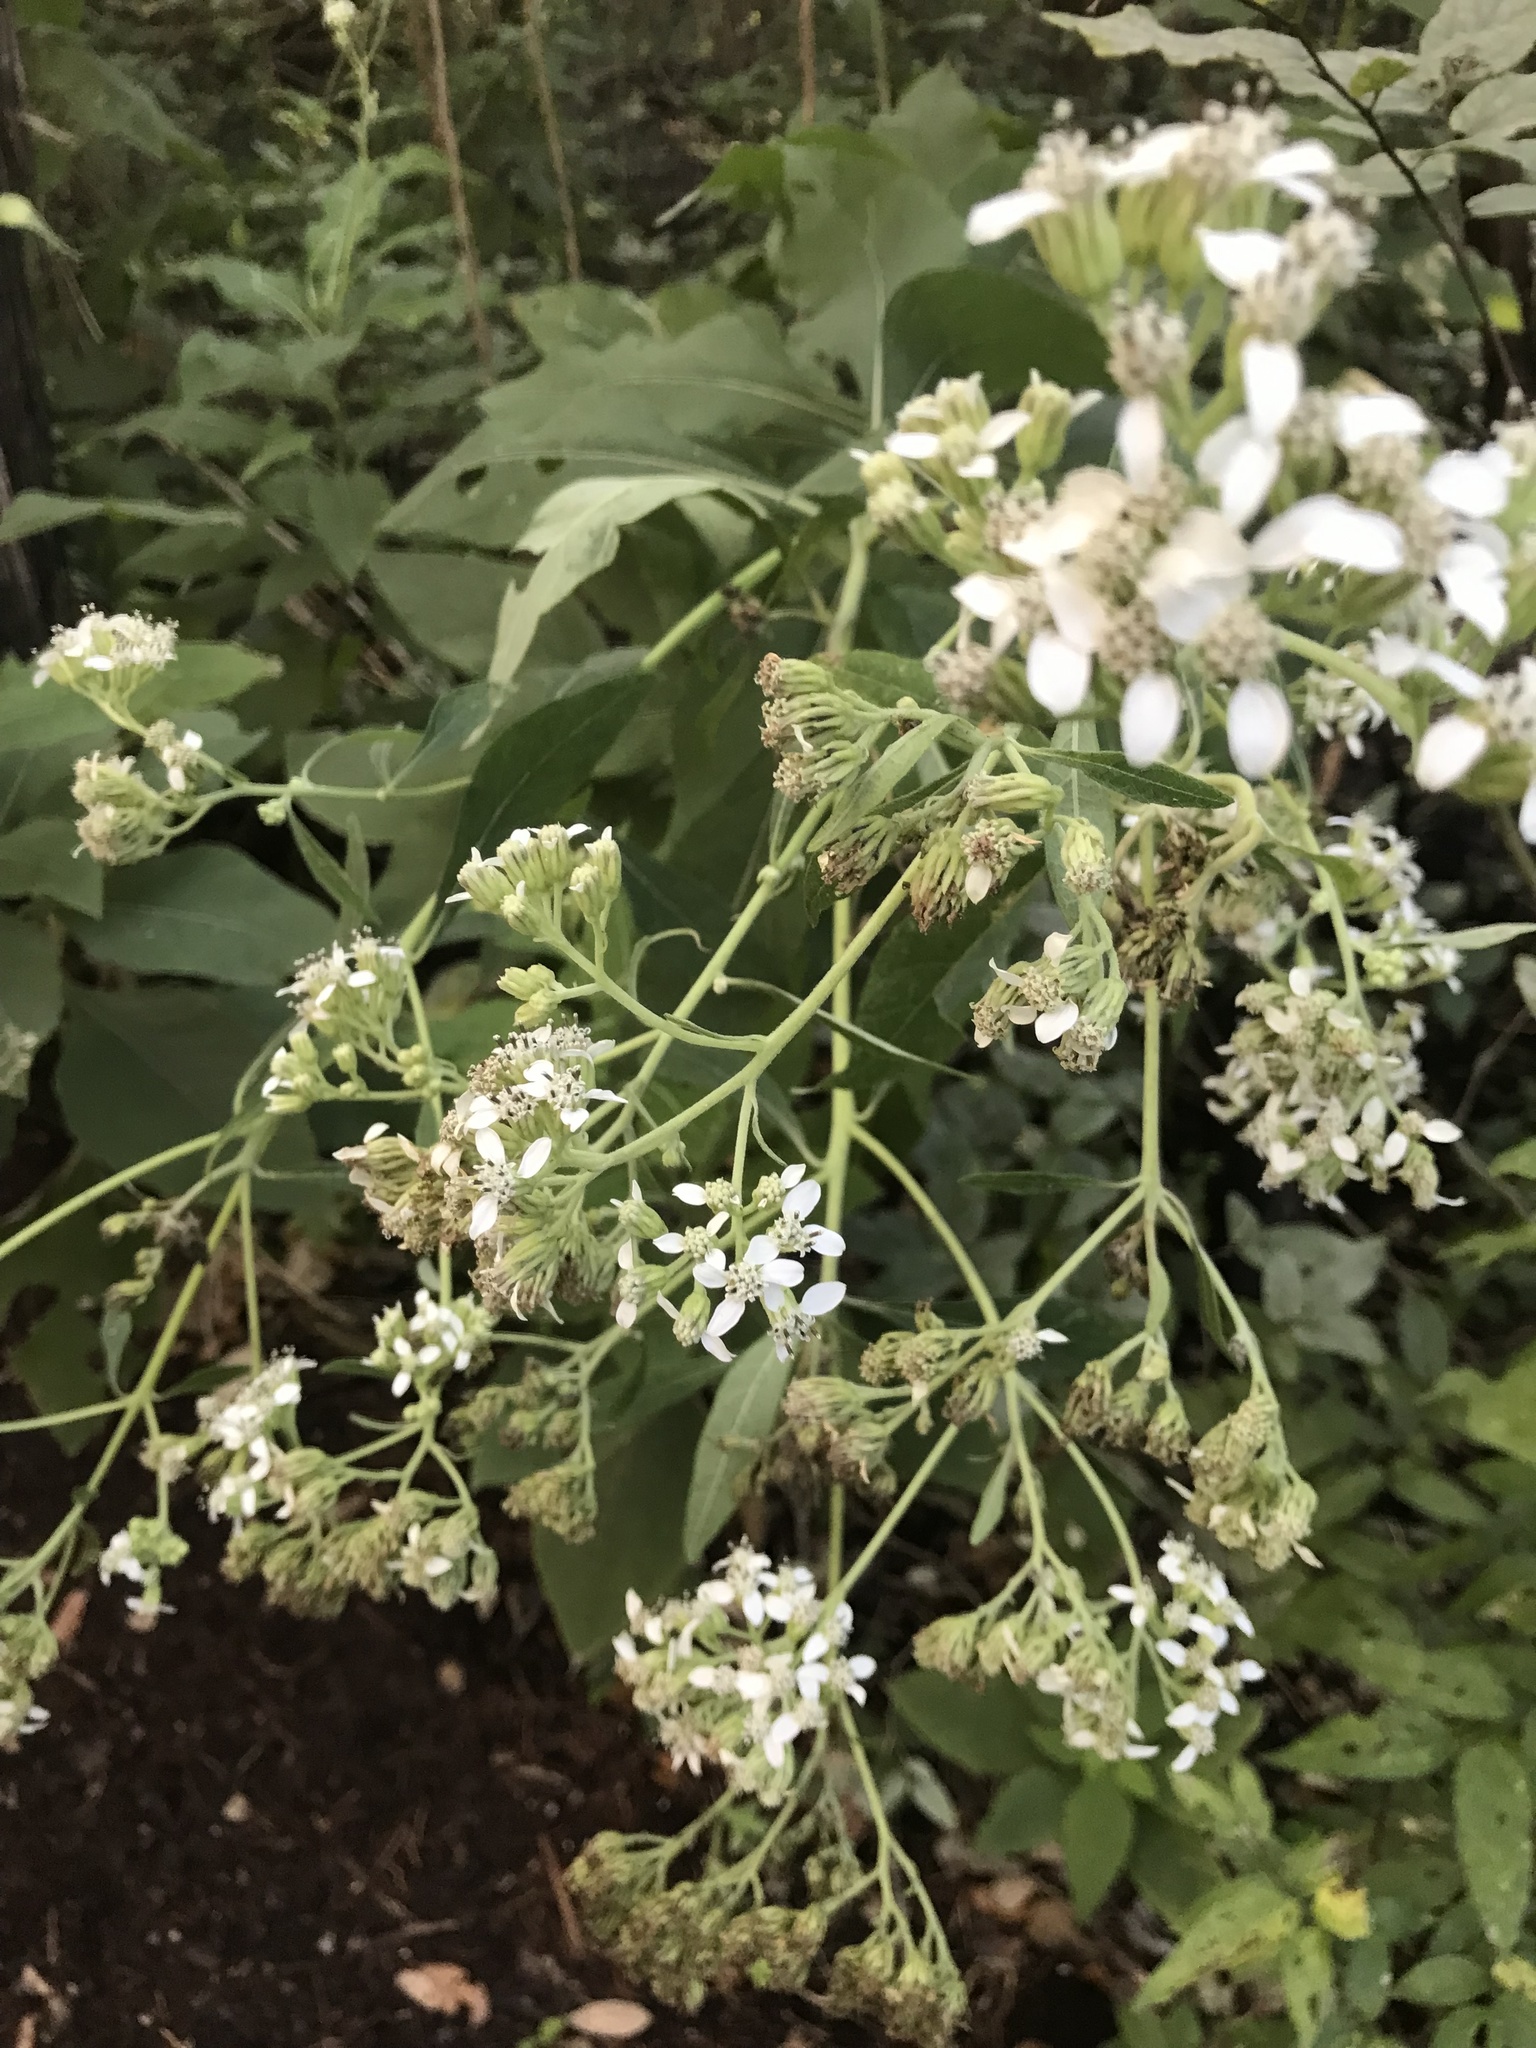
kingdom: Plantae
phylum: Tracheophyta
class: Magnoliopsida
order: Asterales
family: Asteraceae
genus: Verbesina
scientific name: Verbesina virginica
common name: Frostweed
